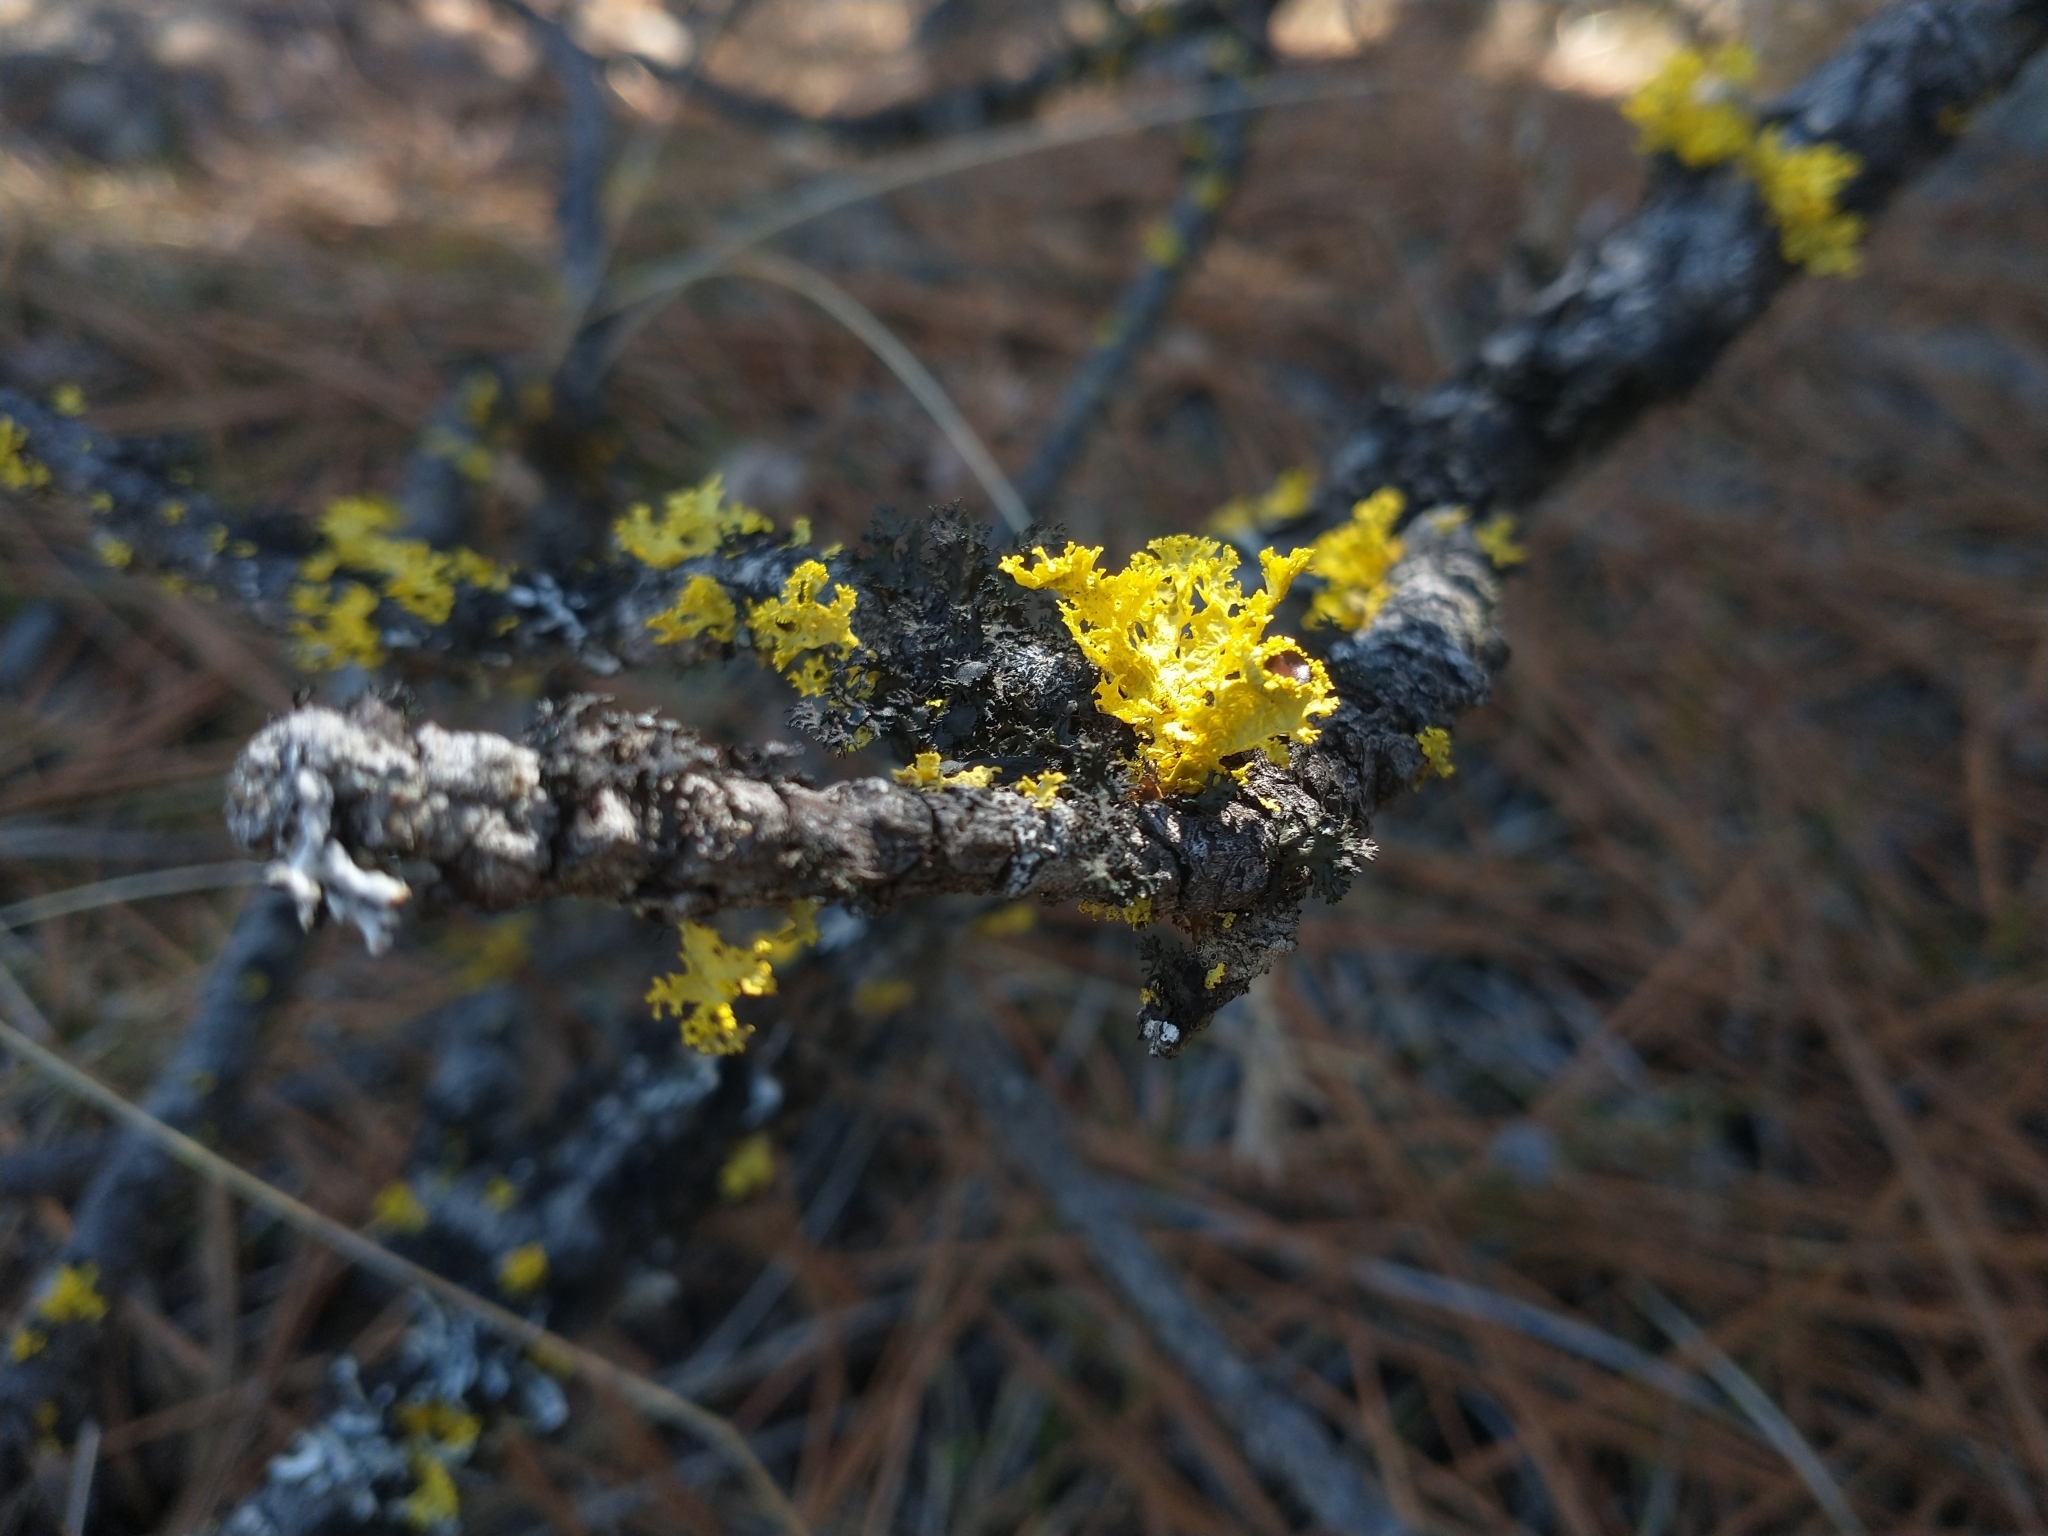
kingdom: Fungi
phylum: Ascomycota
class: Lecanoromycetes
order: Lecanorales
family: Parmeliaceae
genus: Nephromopsis
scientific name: Nephromopsis merrillii
